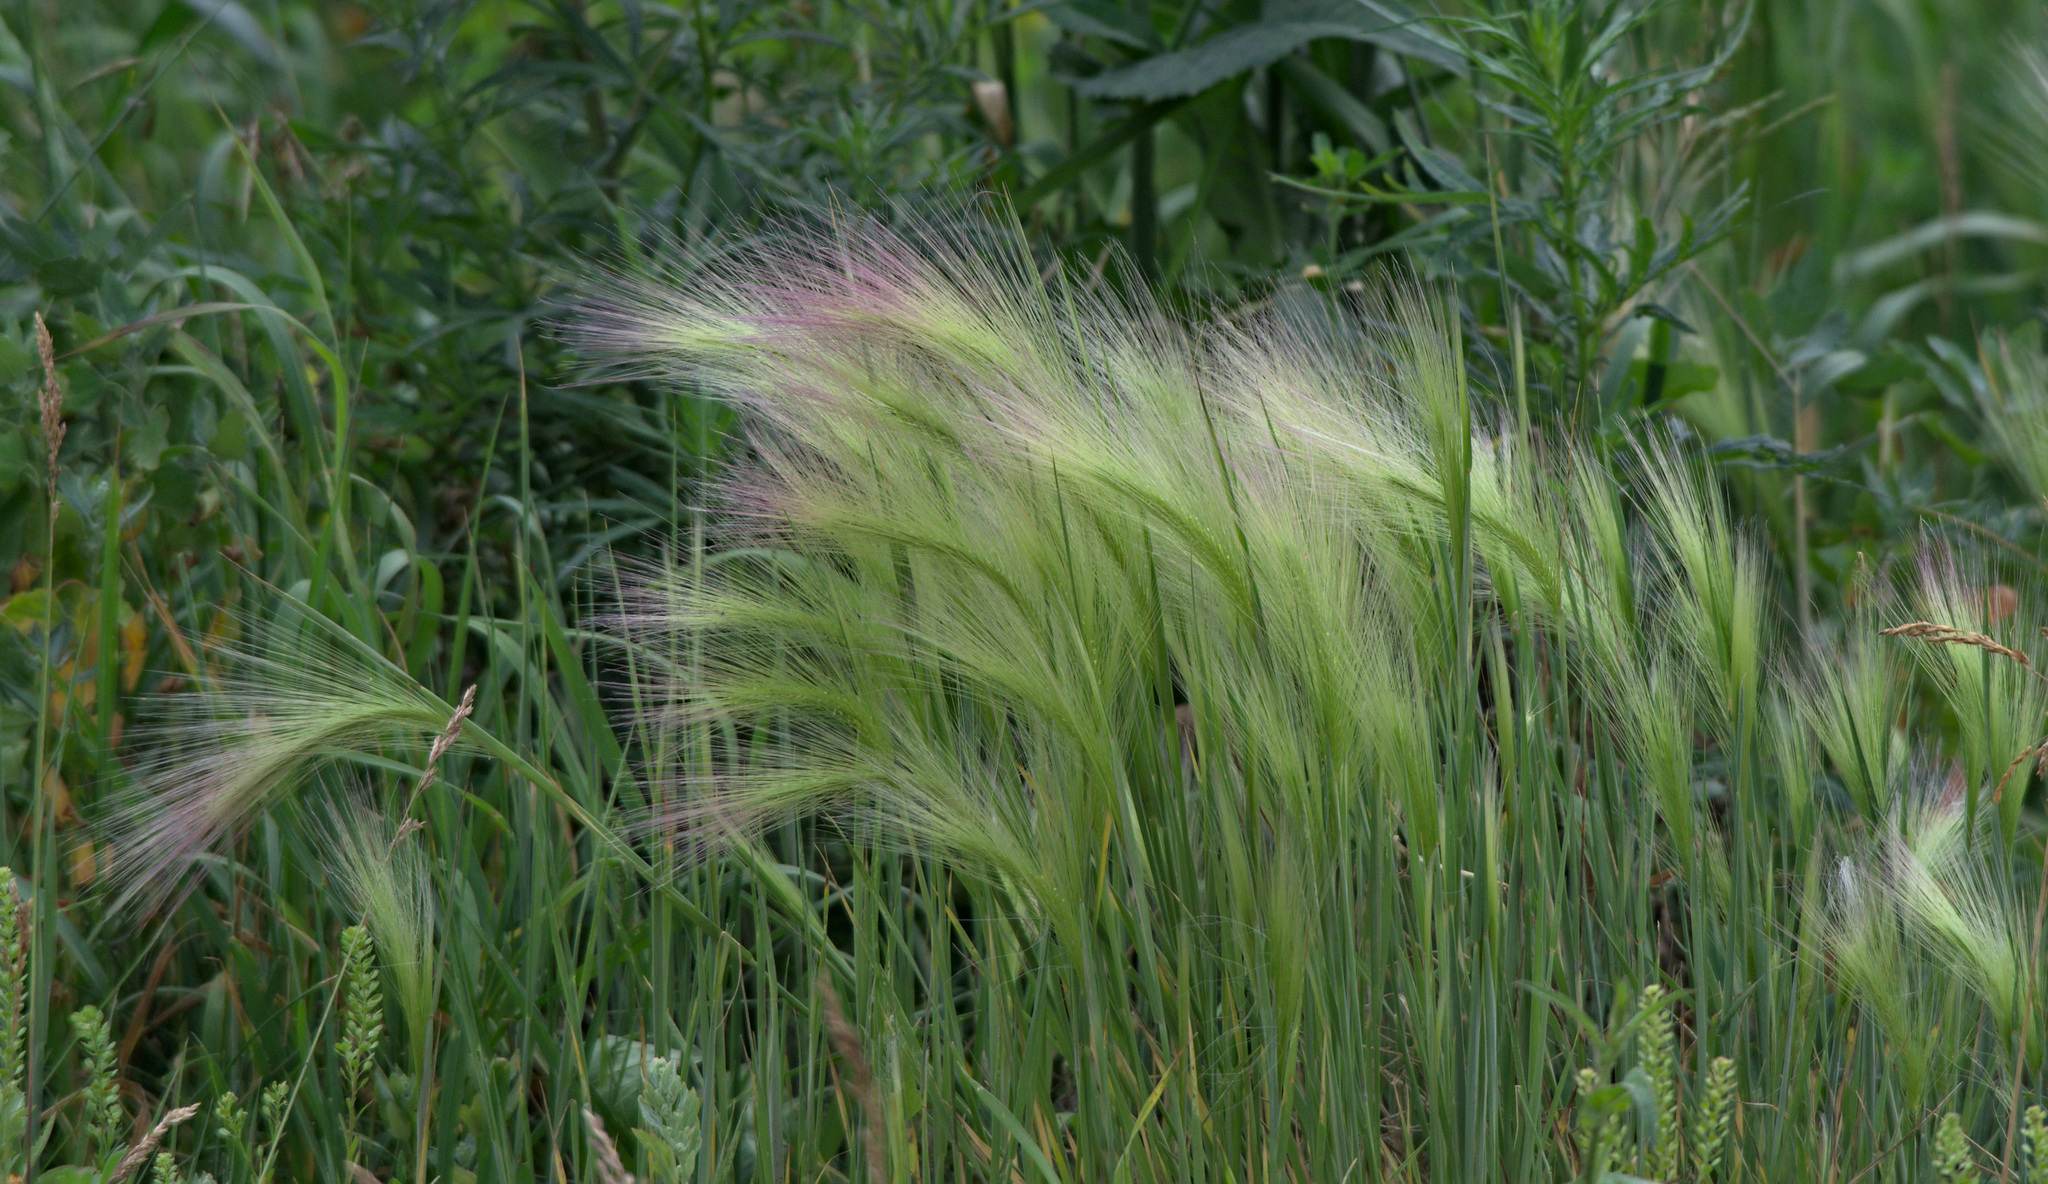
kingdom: Plantae
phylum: Tracheophyta
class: Liliopsida
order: Poales
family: Poaceae
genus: Hordeum
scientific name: Hordeum jubatum
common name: Foxtail barley
